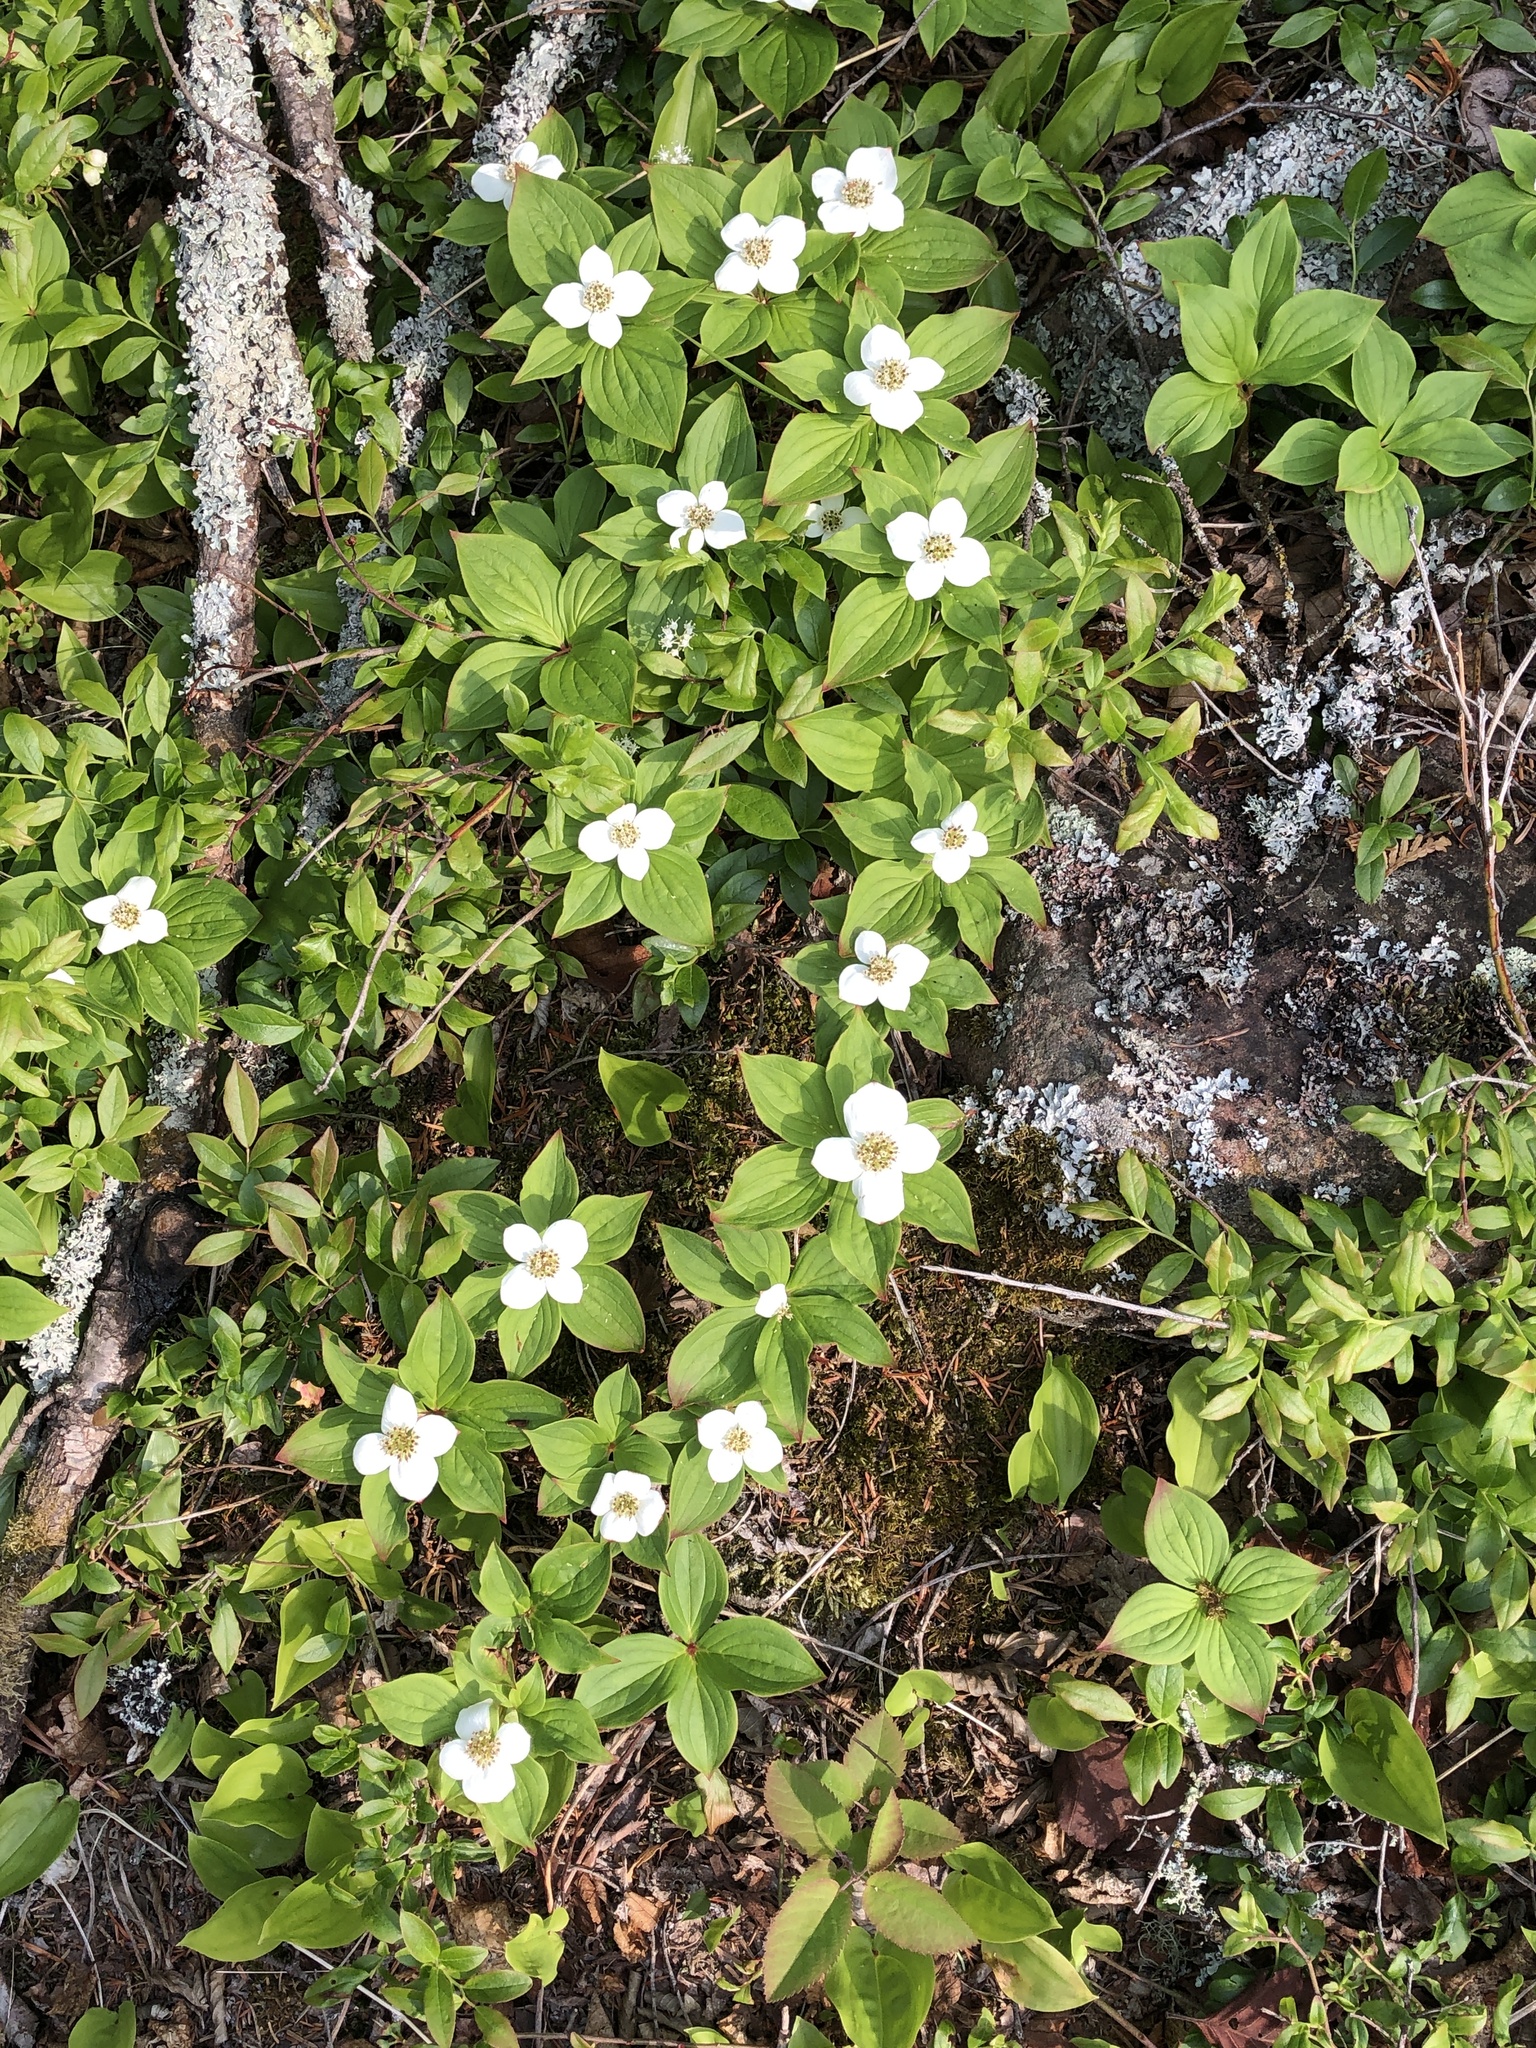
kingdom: Plantae
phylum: Tracheophyta
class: Magnoliopsida
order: Cornales
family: Cornaceae
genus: Cornus
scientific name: Cornus canadensis
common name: Creeping dogwood
